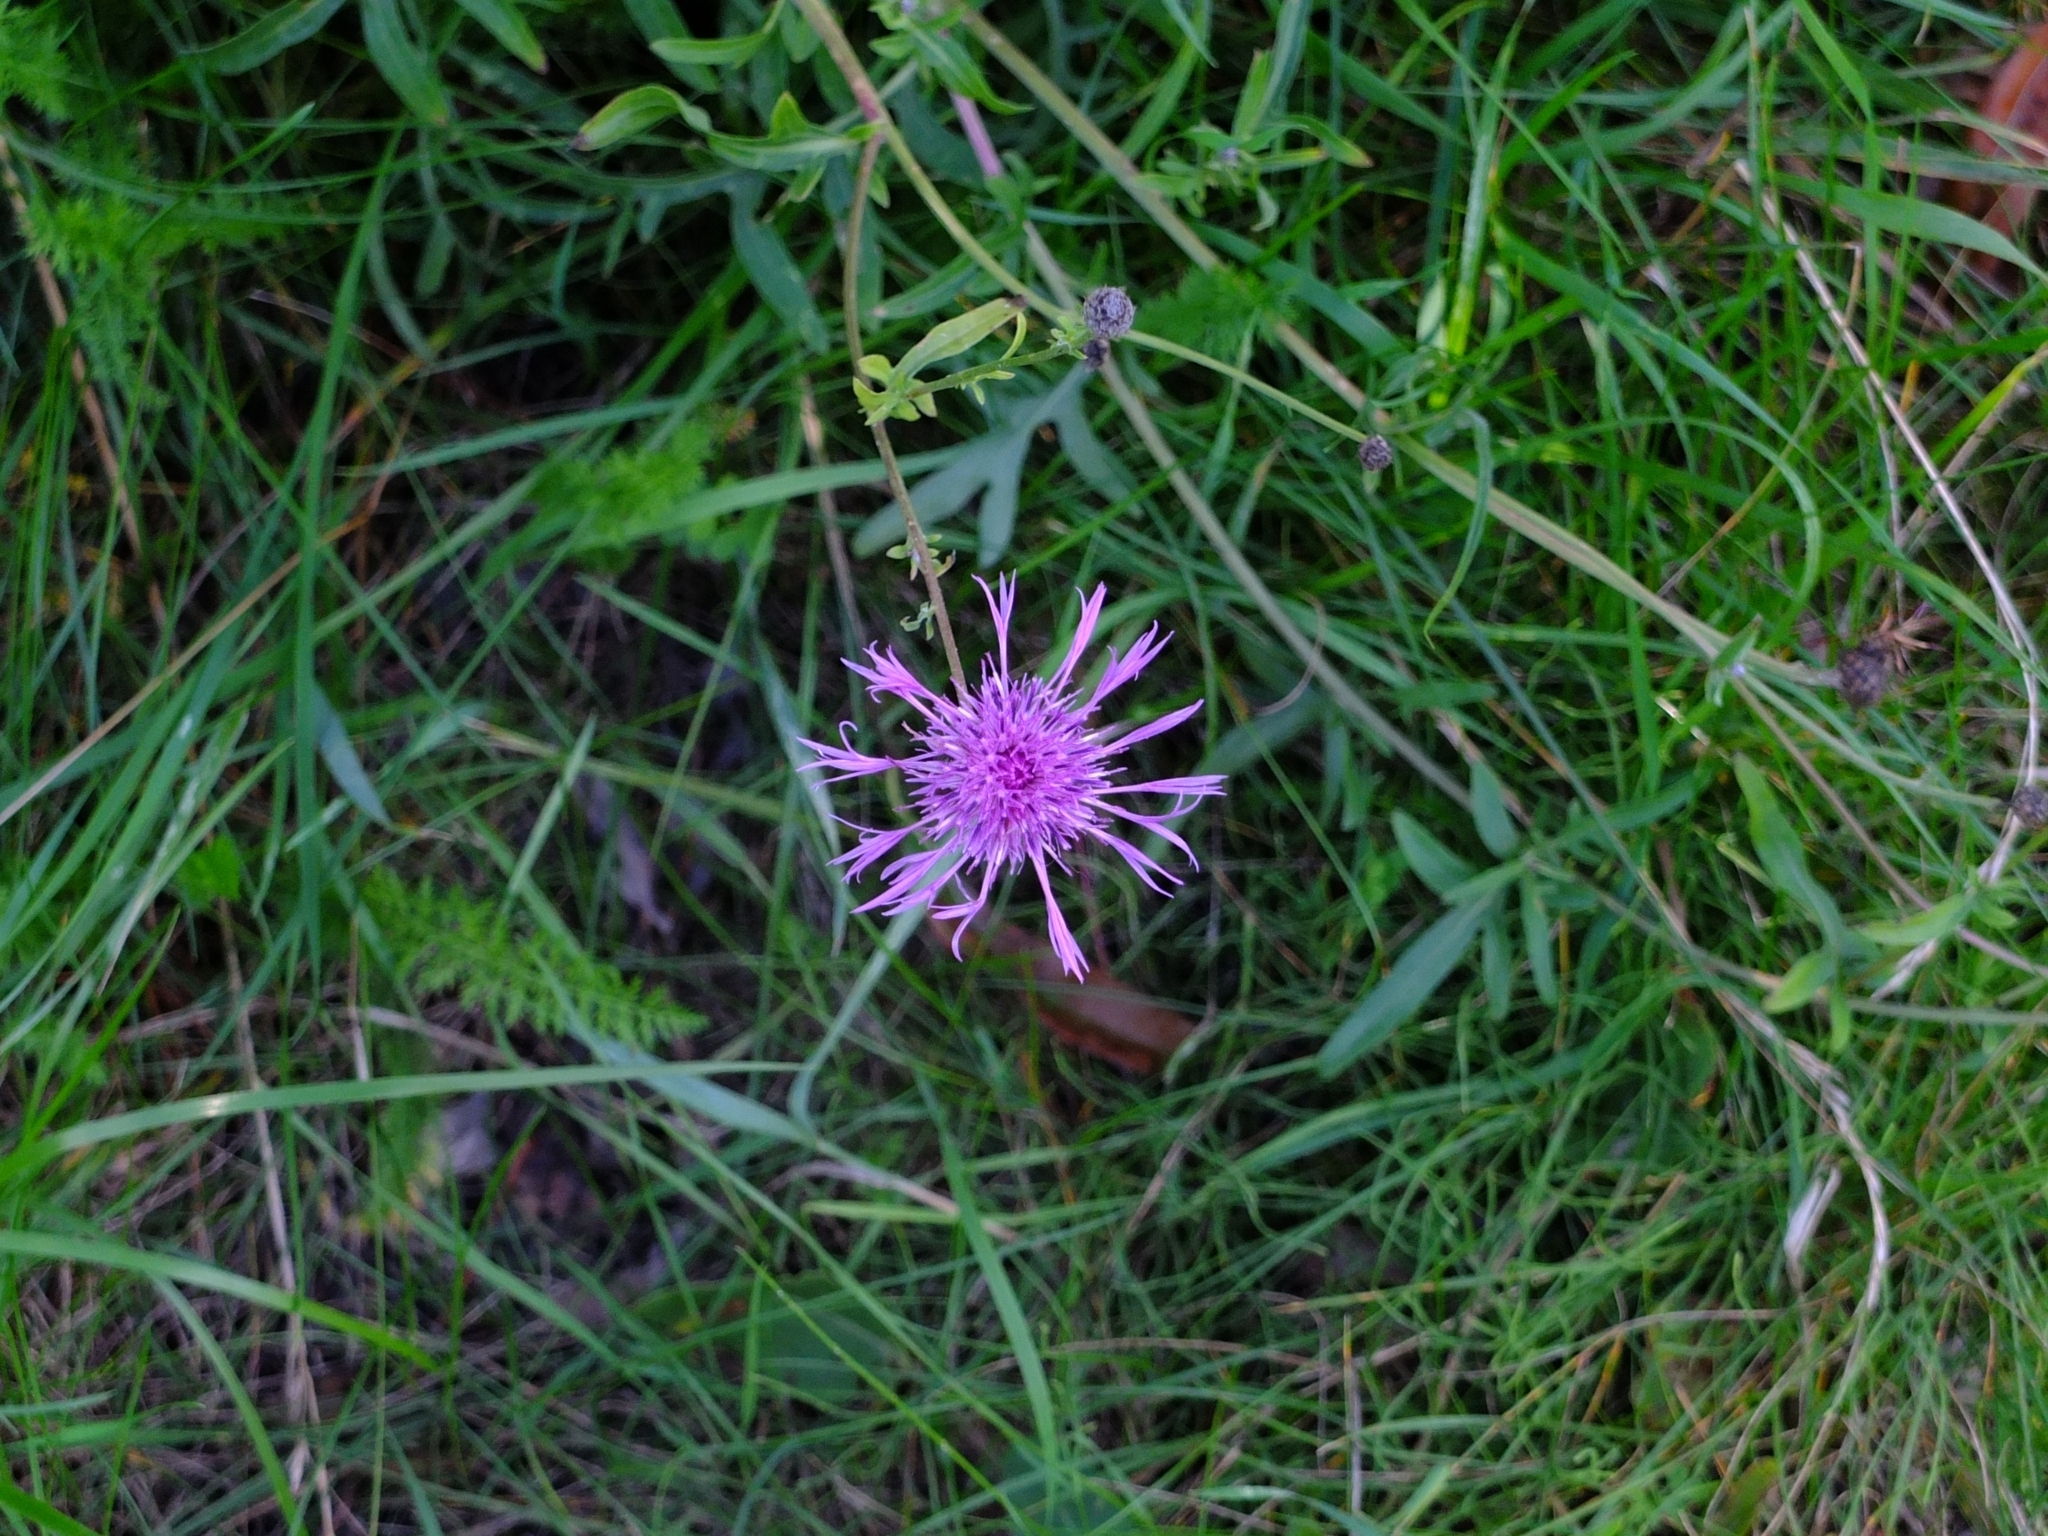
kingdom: Plantae
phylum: Tracheophyta
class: Magnoliopsida
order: Asterales
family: Asteraceae
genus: Centaurea
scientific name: Centaurea scabiosa
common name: Greater knapweed
